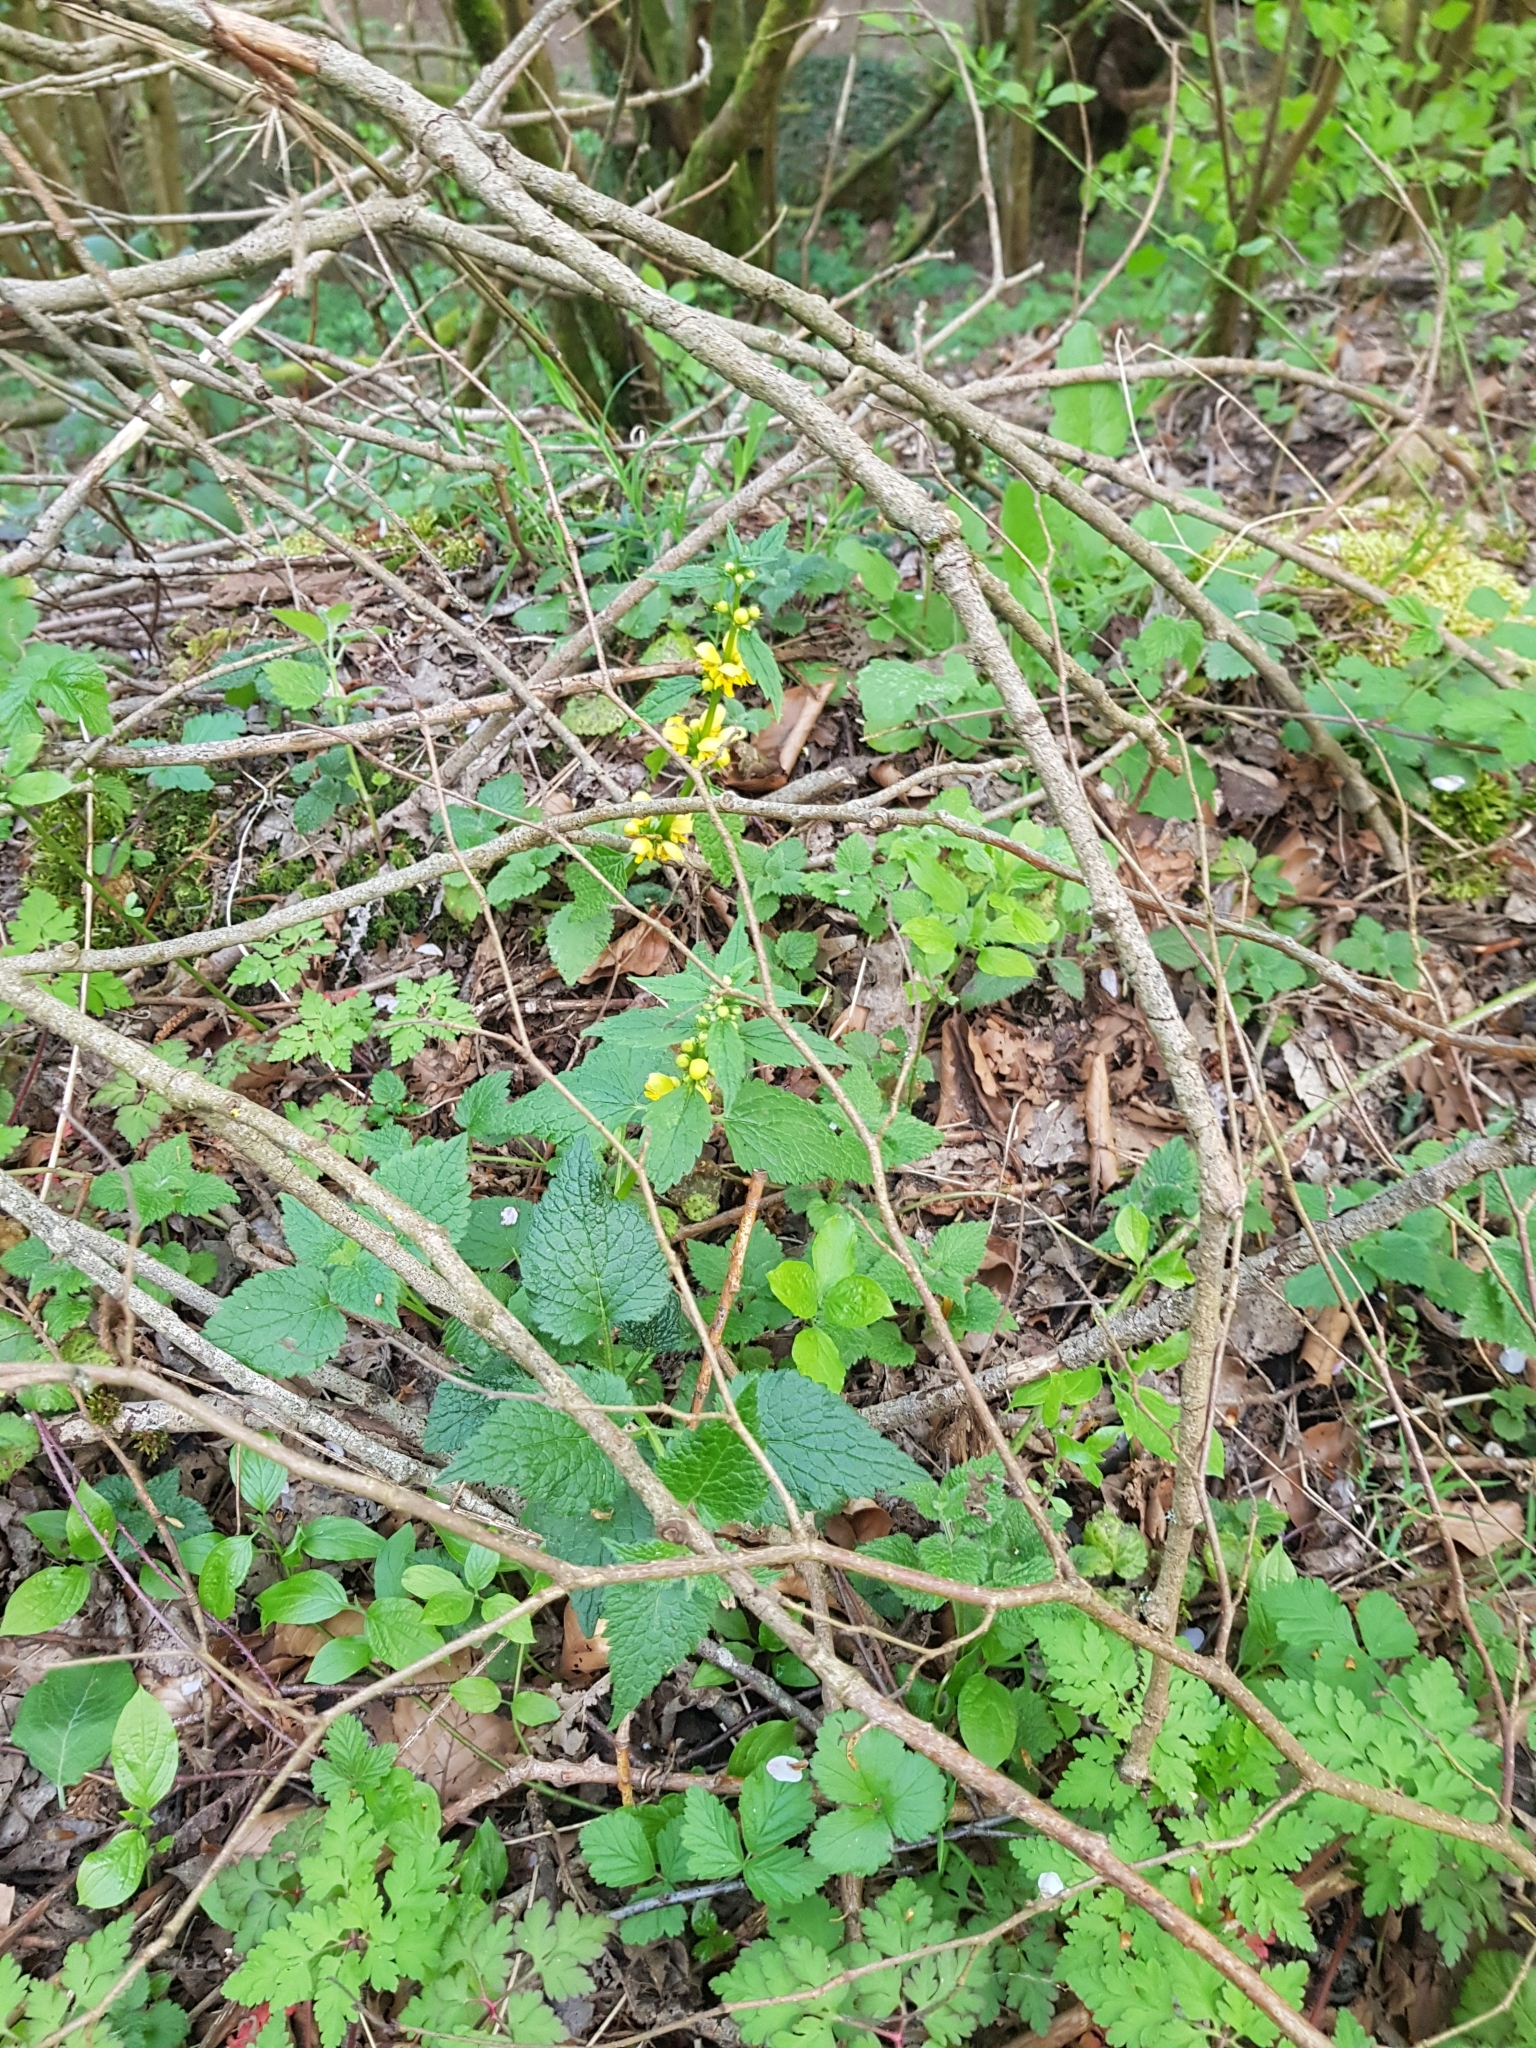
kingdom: Plantae
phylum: Tracheophyta
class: Magnoliopsida
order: Lamiales
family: Lamiaceae
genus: Lamium
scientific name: Lamium galeobdolon
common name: Yellow archangel
